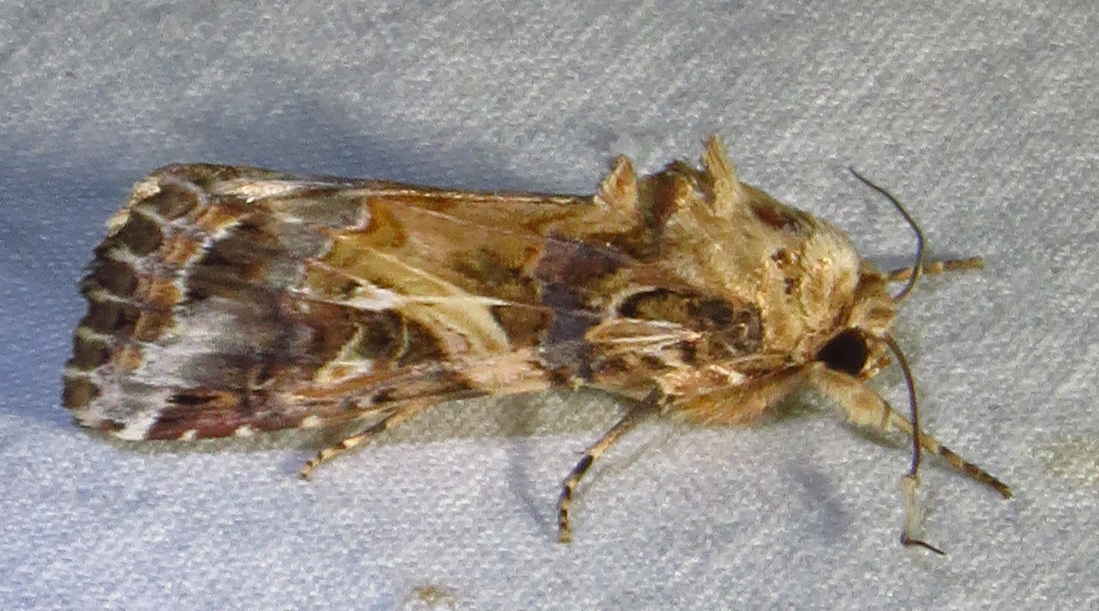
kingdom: Animalia
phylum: Arthropoda
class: Insecta
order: Lepidoptera
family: Noctuidae
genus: Spodoptera
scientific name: Spodoptera ornithogalli
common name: Yellow-striped armyworm
